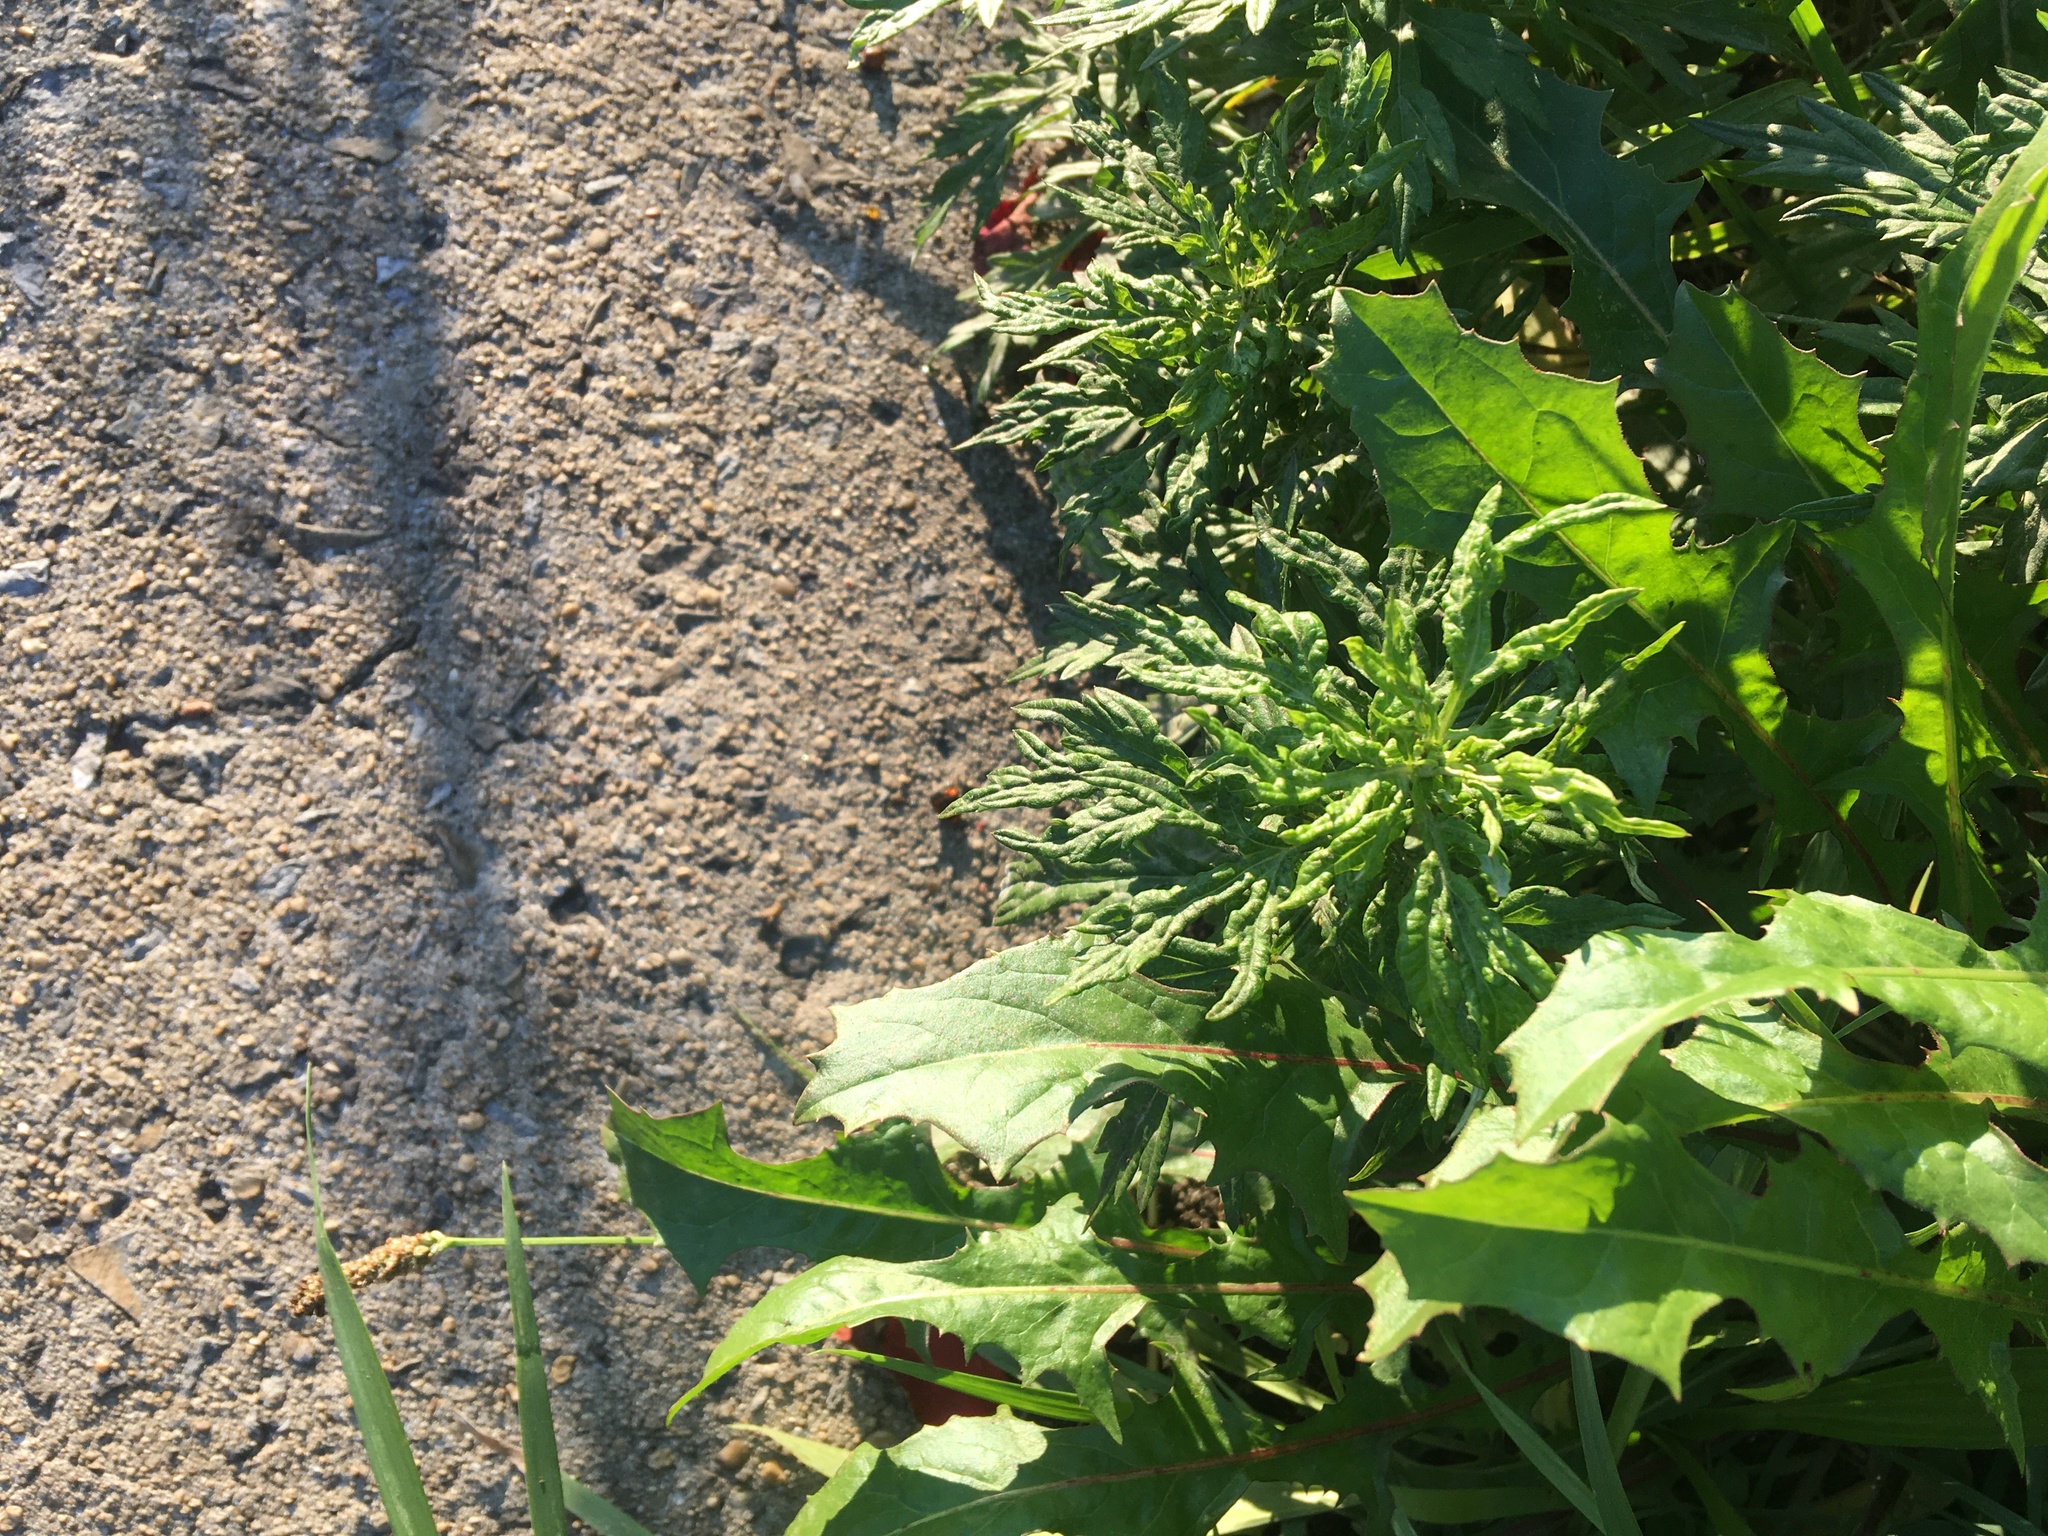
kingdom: Plantae
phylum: Tracheophyta
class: Magnoliopsida
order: Asterales
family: Asteraceae
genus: Artemisia
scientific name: Artemisia vulgaris
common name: Mugwort
